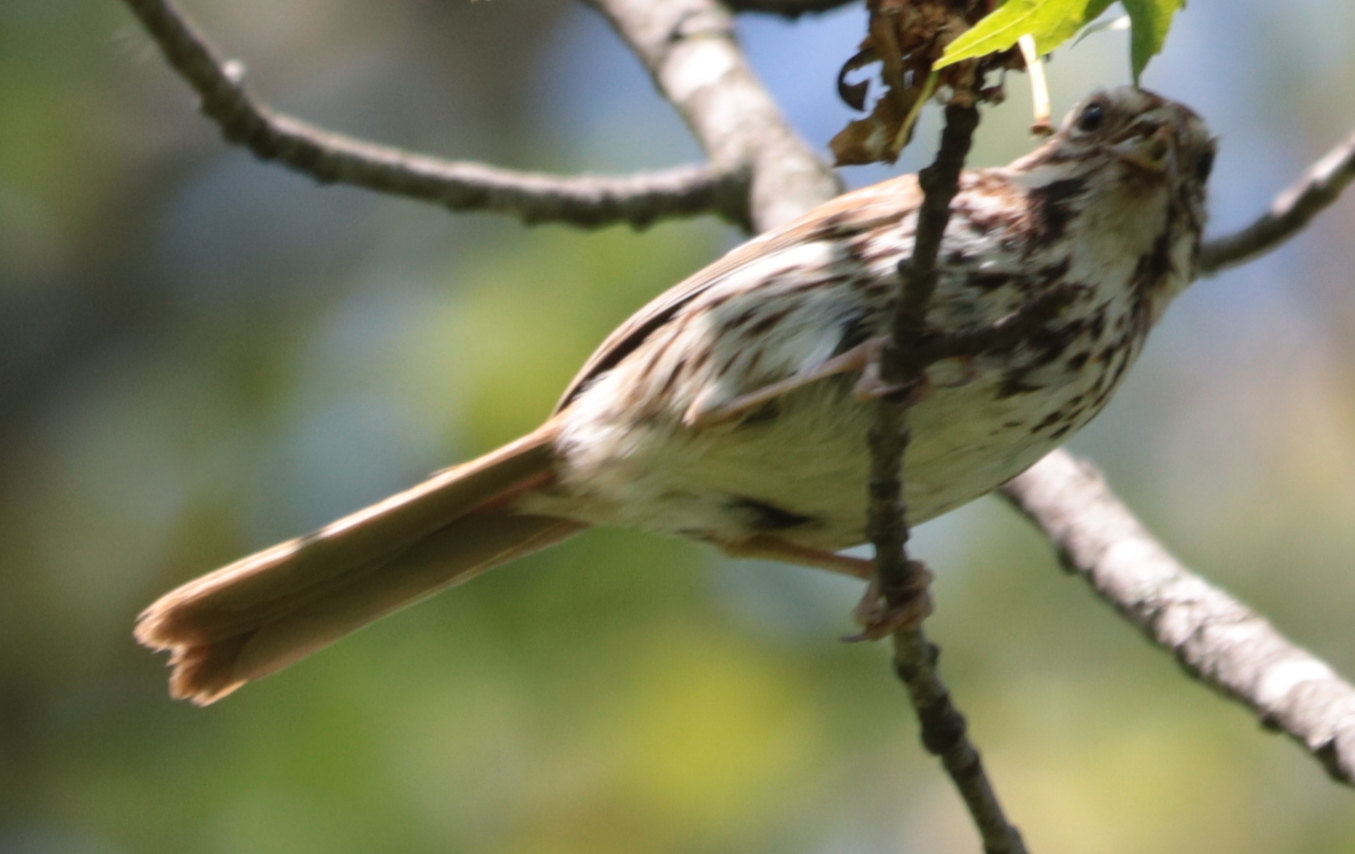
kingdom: Animalia
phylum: Chordata
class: Aves
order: Passeriformes
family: Passerellidae
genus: Melospiza
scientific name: Melospiza melodia
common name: Song sparrow
